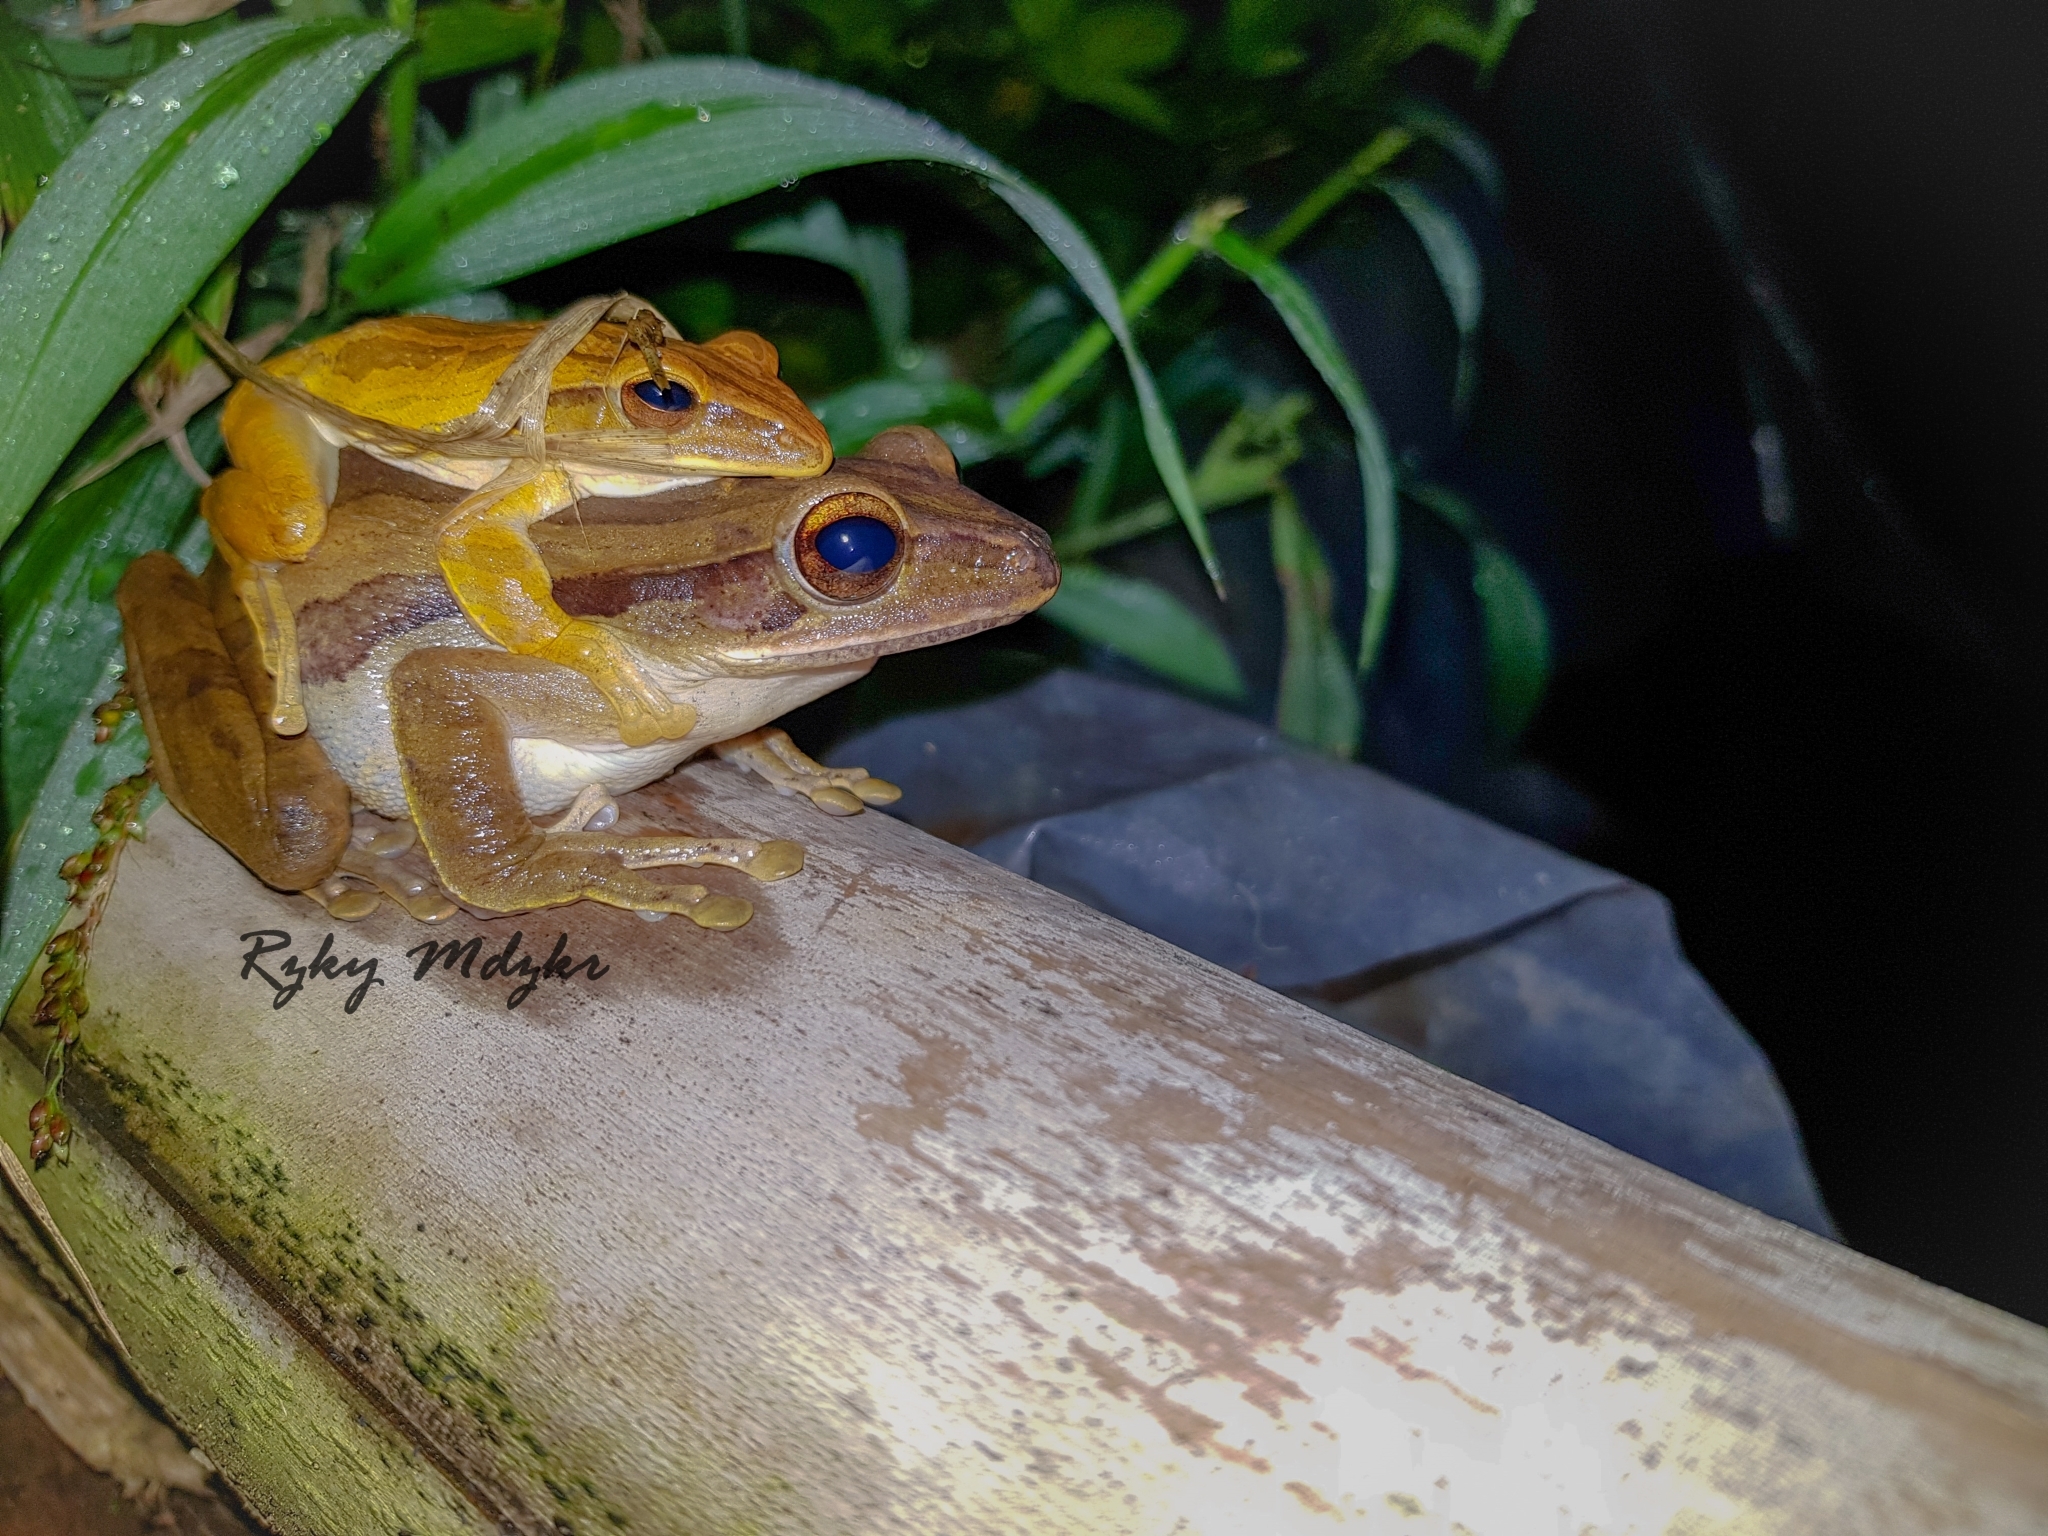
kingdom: Animalia
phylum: Chordata
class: Amphibia
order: Anura
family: Rhacophoridae
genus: Polypedates
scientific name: Polypedates leucomystax
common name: Common tree frog/four-lined tree frog
